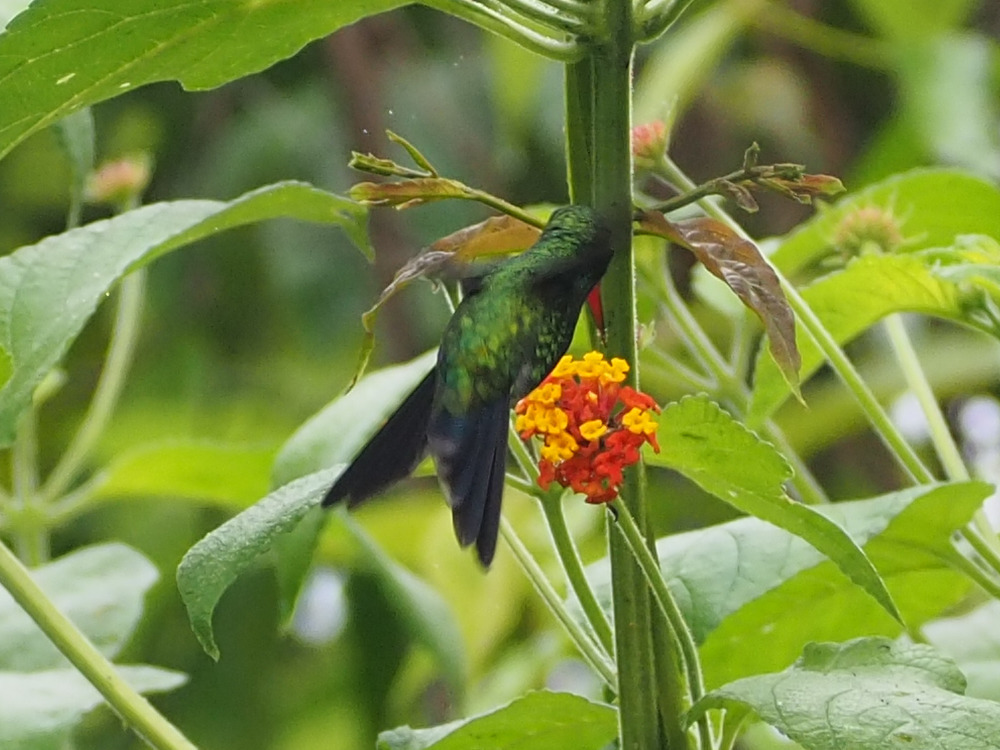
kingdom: Animalia
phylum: Chordata
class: Aves
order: Apodiformes
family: Trochilidae
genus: Cynanthus
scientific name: Cynanthus canivetii
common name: Canivet's emerald
